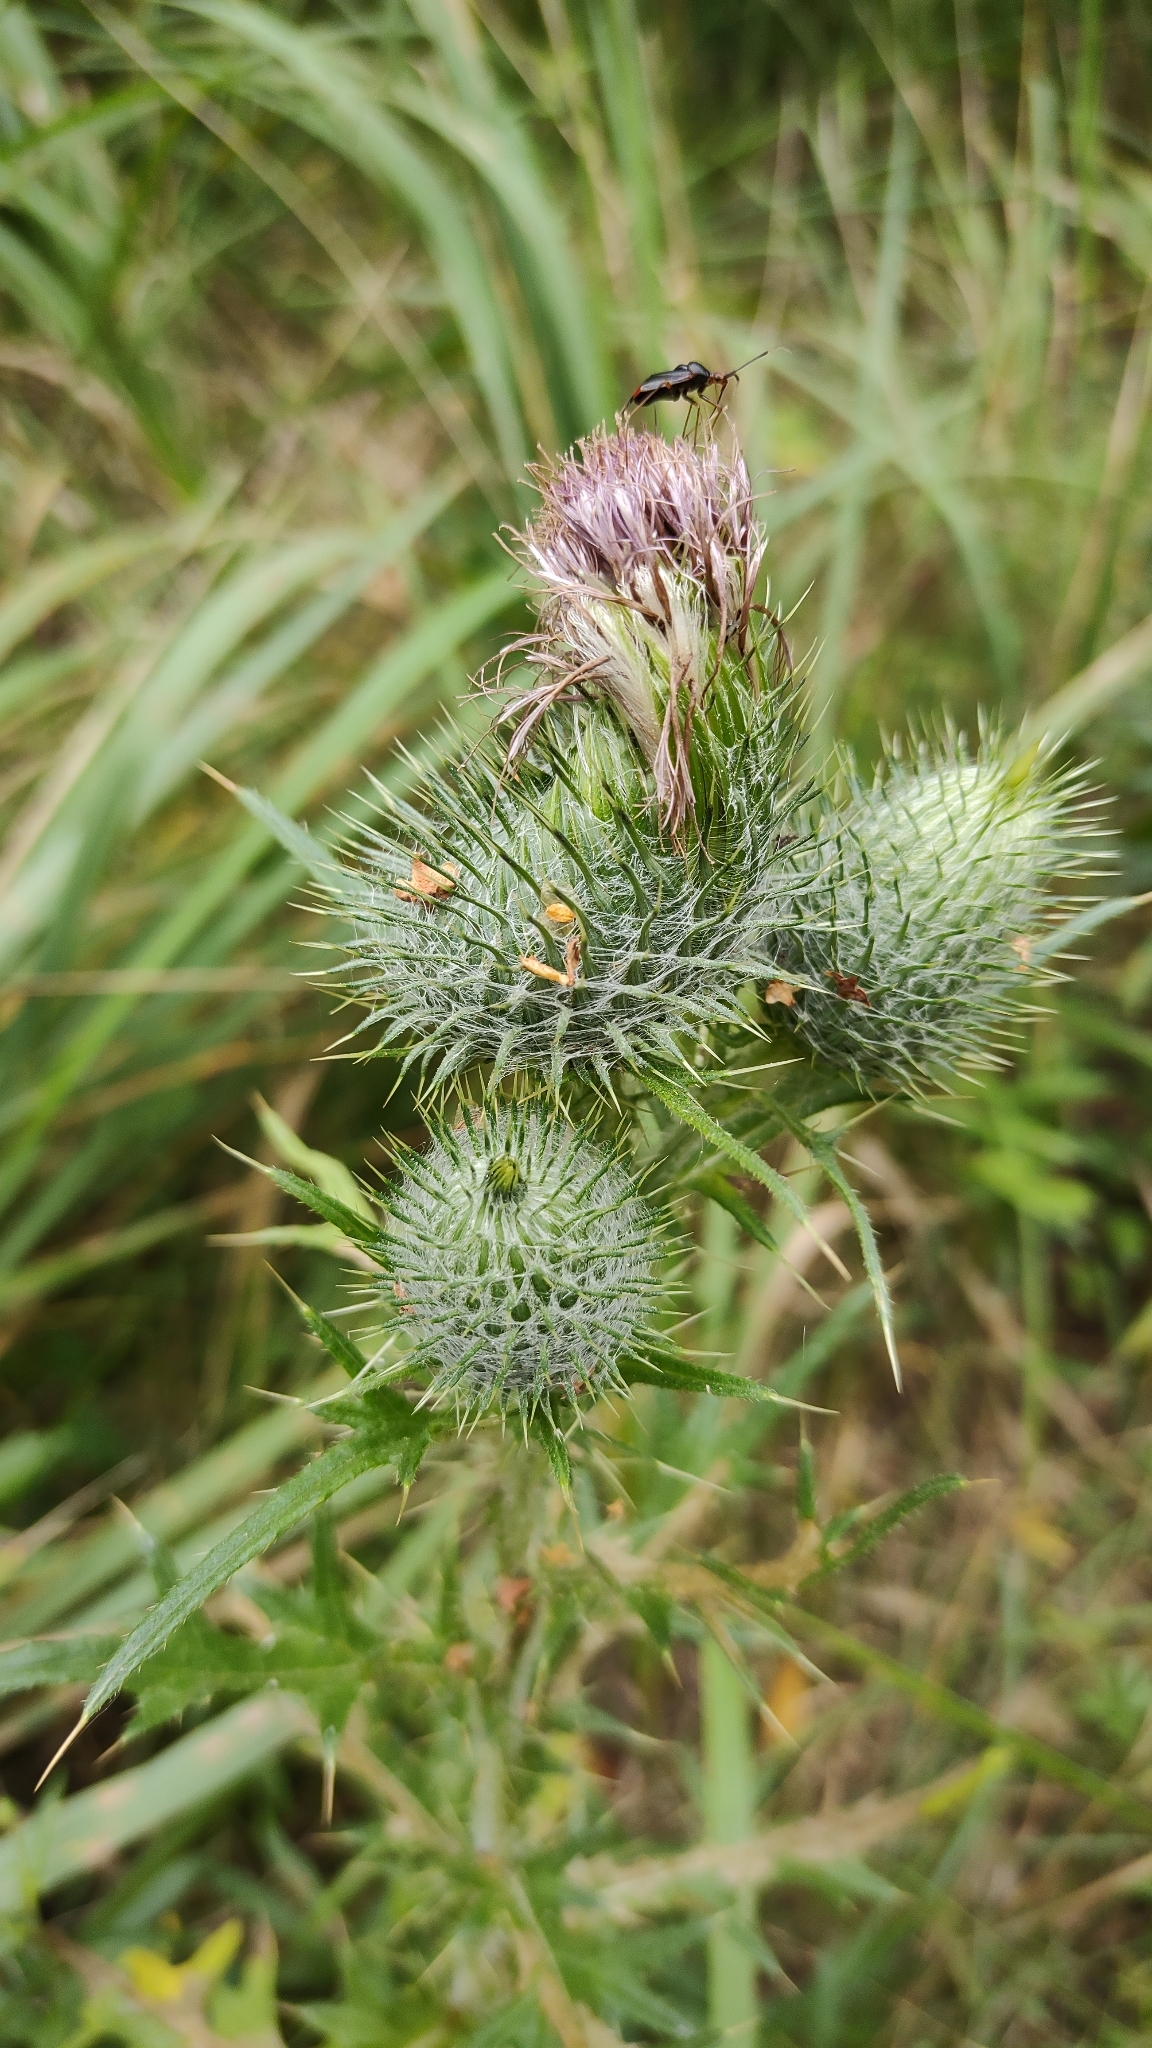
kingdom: Plantae
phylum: Tracheophyta
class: Magnoliopsida
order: Asterales
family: Asteraceae
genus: Cirsium
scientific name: Cirsium vulgare
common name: Bull thistle
